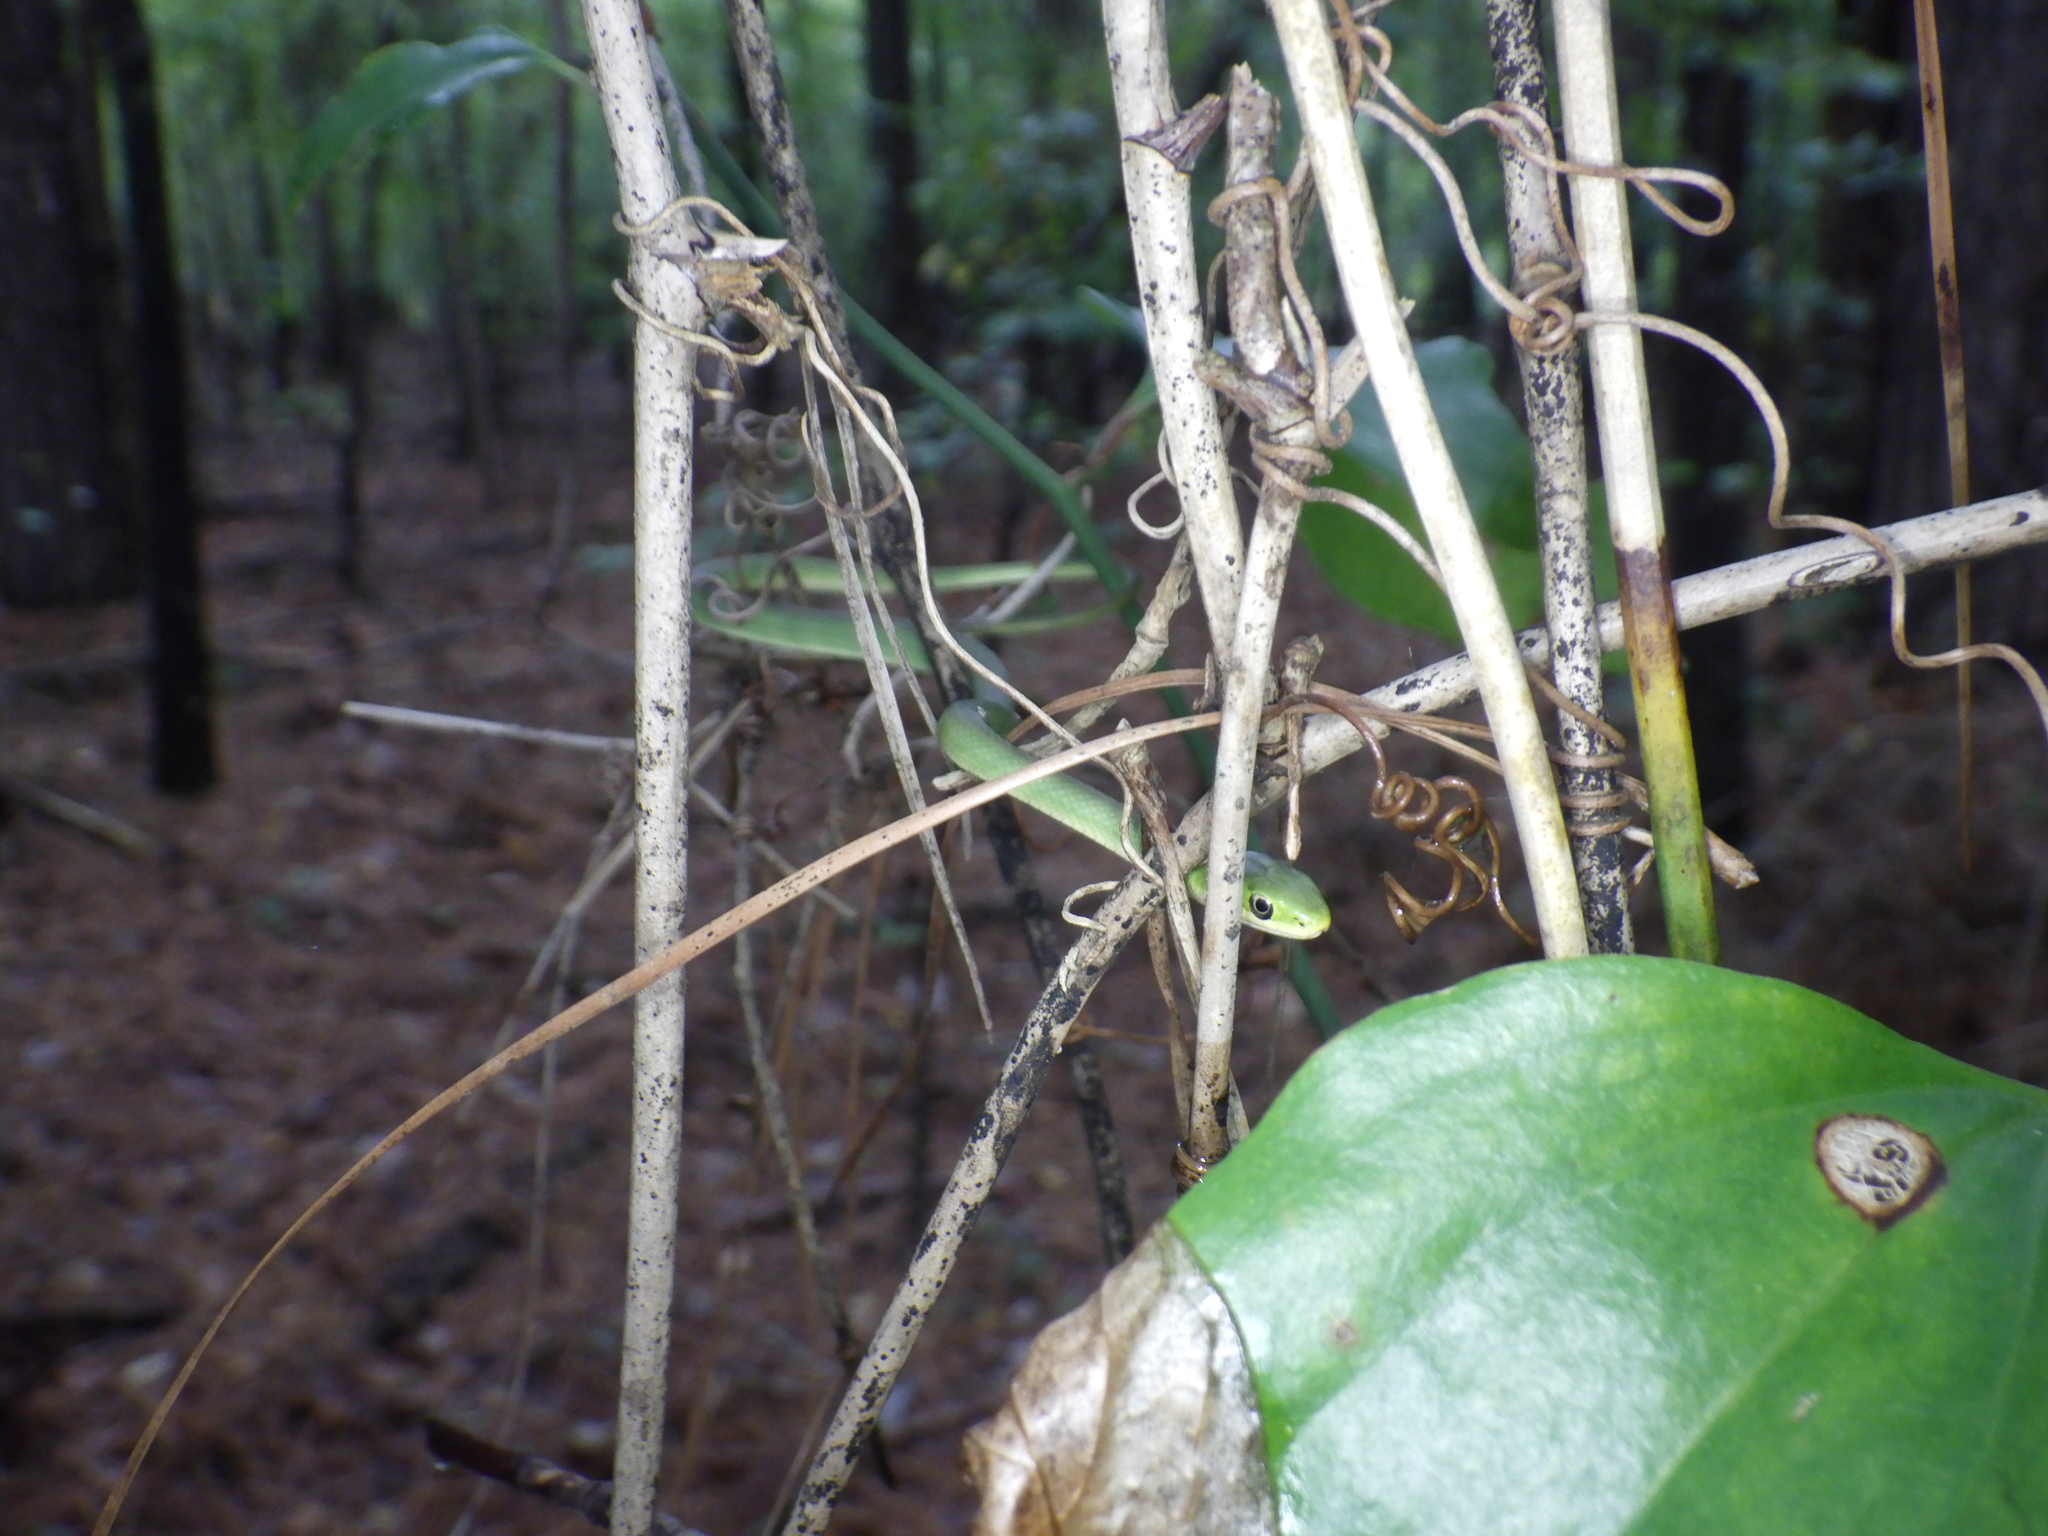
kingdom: Animalia
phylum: Chordata
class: Squamata
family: Colubridae
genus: Opheodrys
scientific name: Opheodrys aestivus
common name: Rough greensnake
